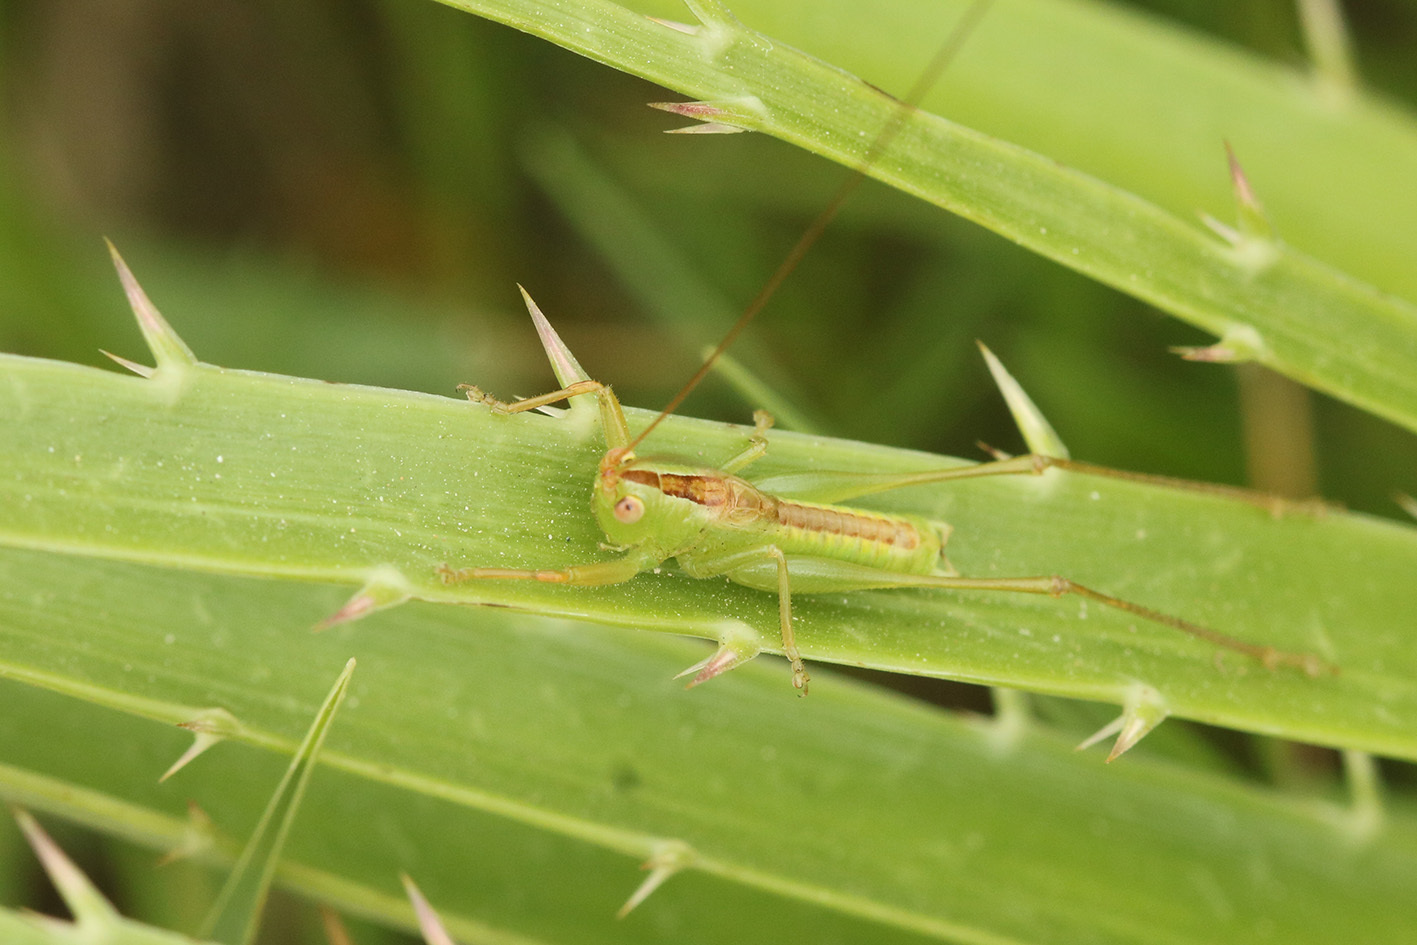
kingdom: Animalia
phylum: Arthropoda
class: Insecta
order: Orthoptera
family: Tettigoniidae
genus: Conocephalus
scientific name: Conocephalus
